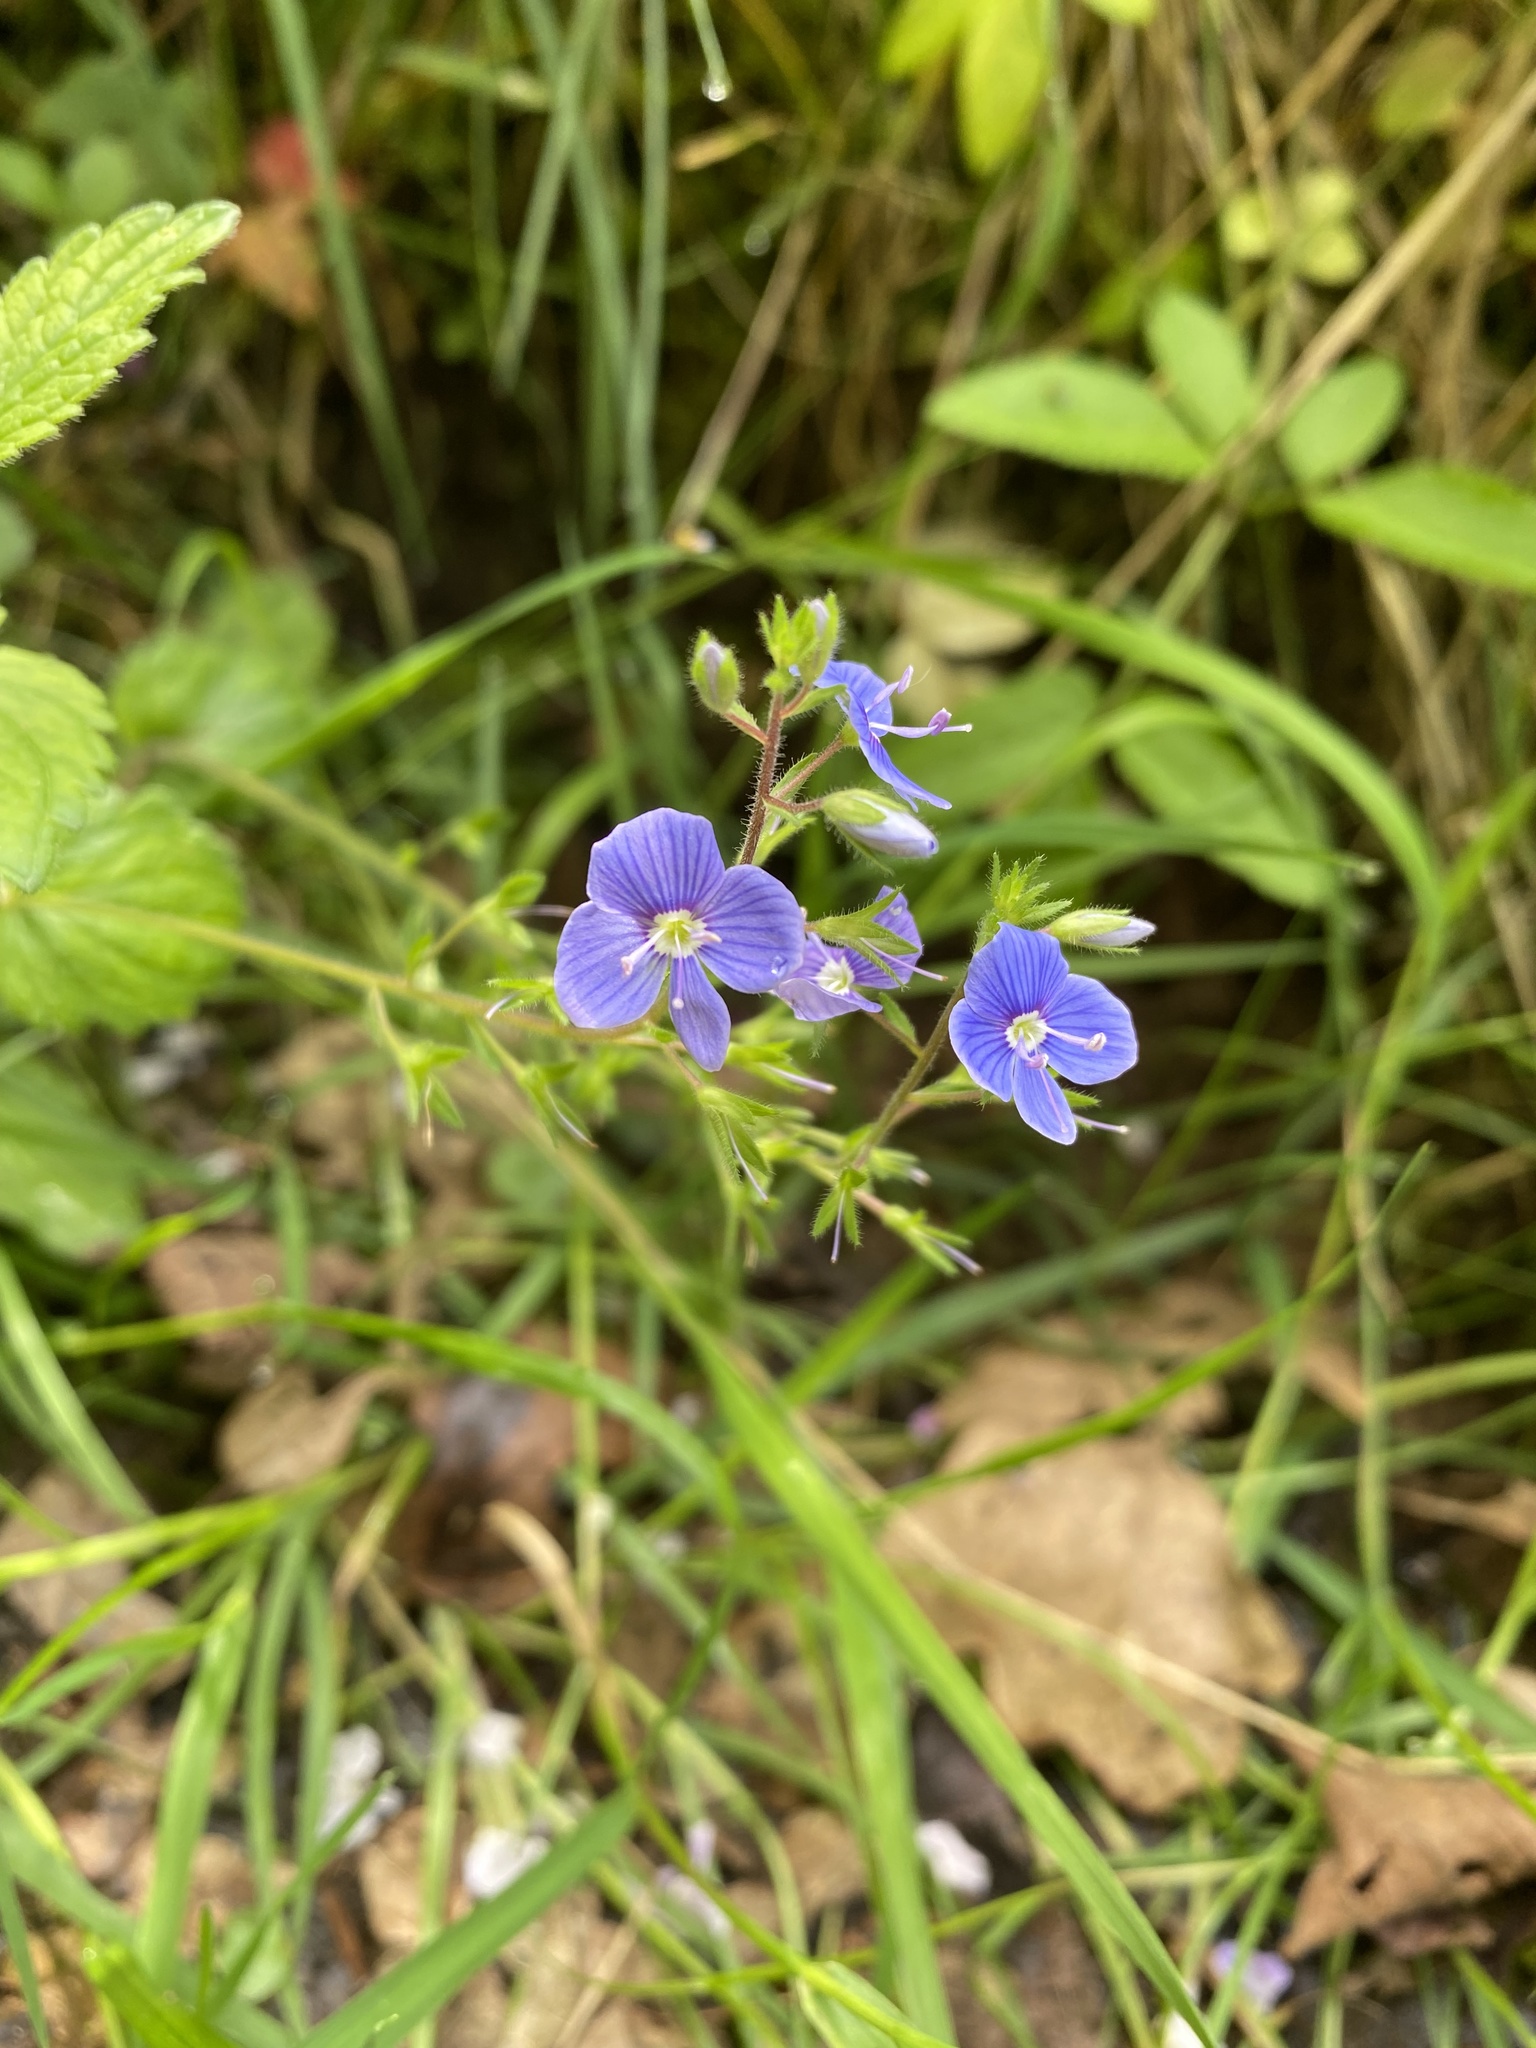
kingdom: Plantae
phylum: Tracheophyta
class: Magnoliopsida
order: Lamiales
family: Plantaginaceae
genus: Veronica
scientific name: Veronica chamaedrys
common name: Germander speedwell
